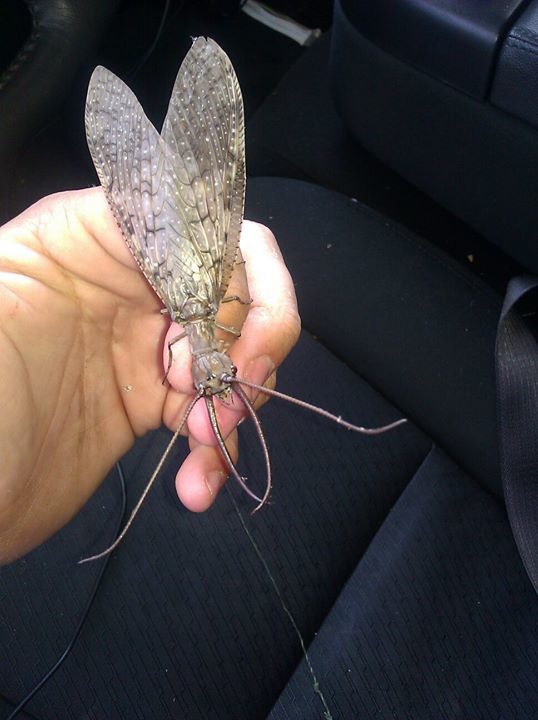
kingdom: Animalia
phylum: Arthropoda
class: Insecta
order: Megaloptera
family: Corydalidae
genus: Corydalus
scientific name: Corydalus cornutus
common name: Dobsonfly
